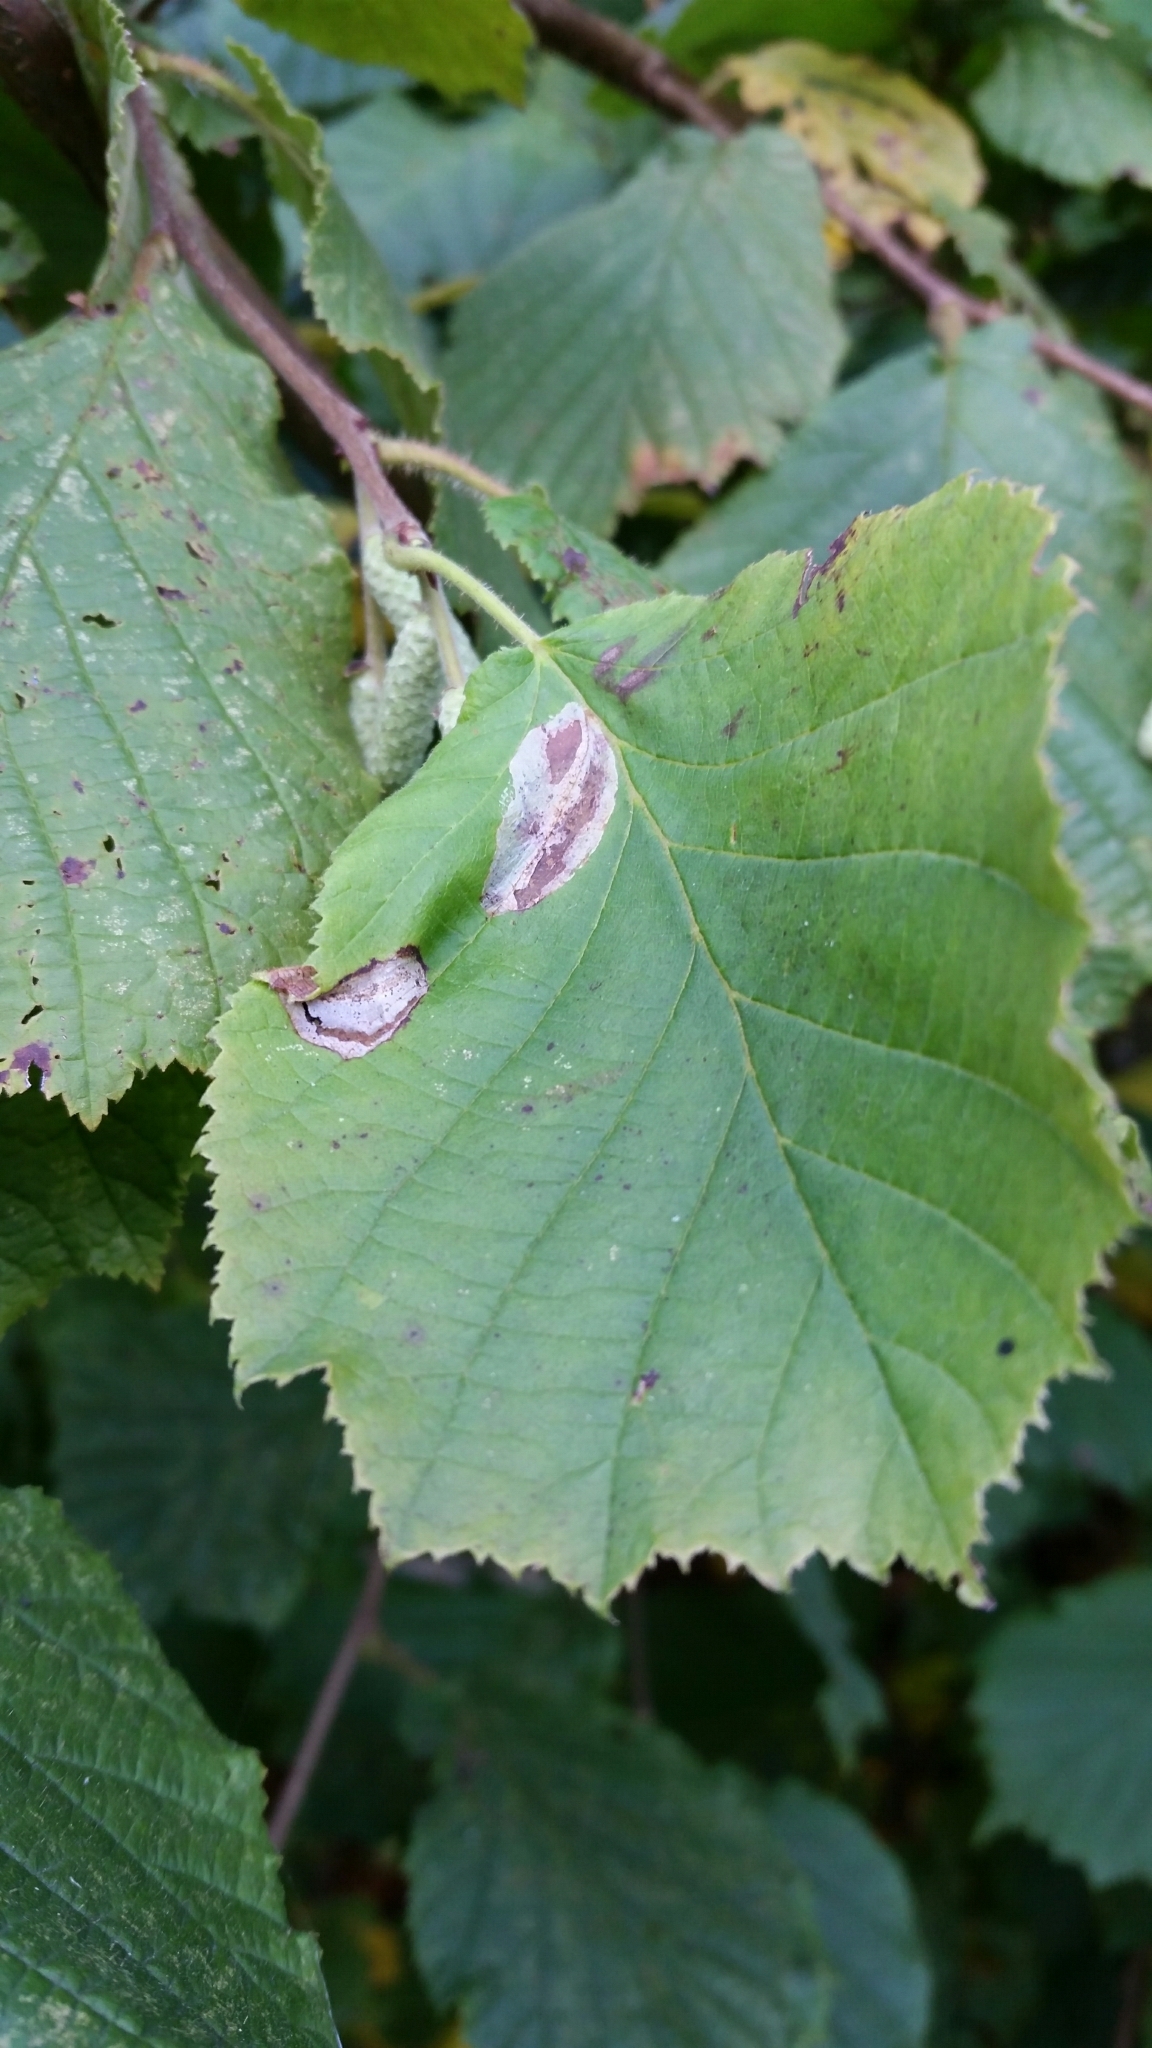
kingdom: Animalia
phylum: Arthropoda
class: Insecta
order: Lepidoptera
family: Gracillariidae
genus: Phyllonorycter
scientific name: Phyllonorycter coryli
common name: Nut-leaf blister moth
